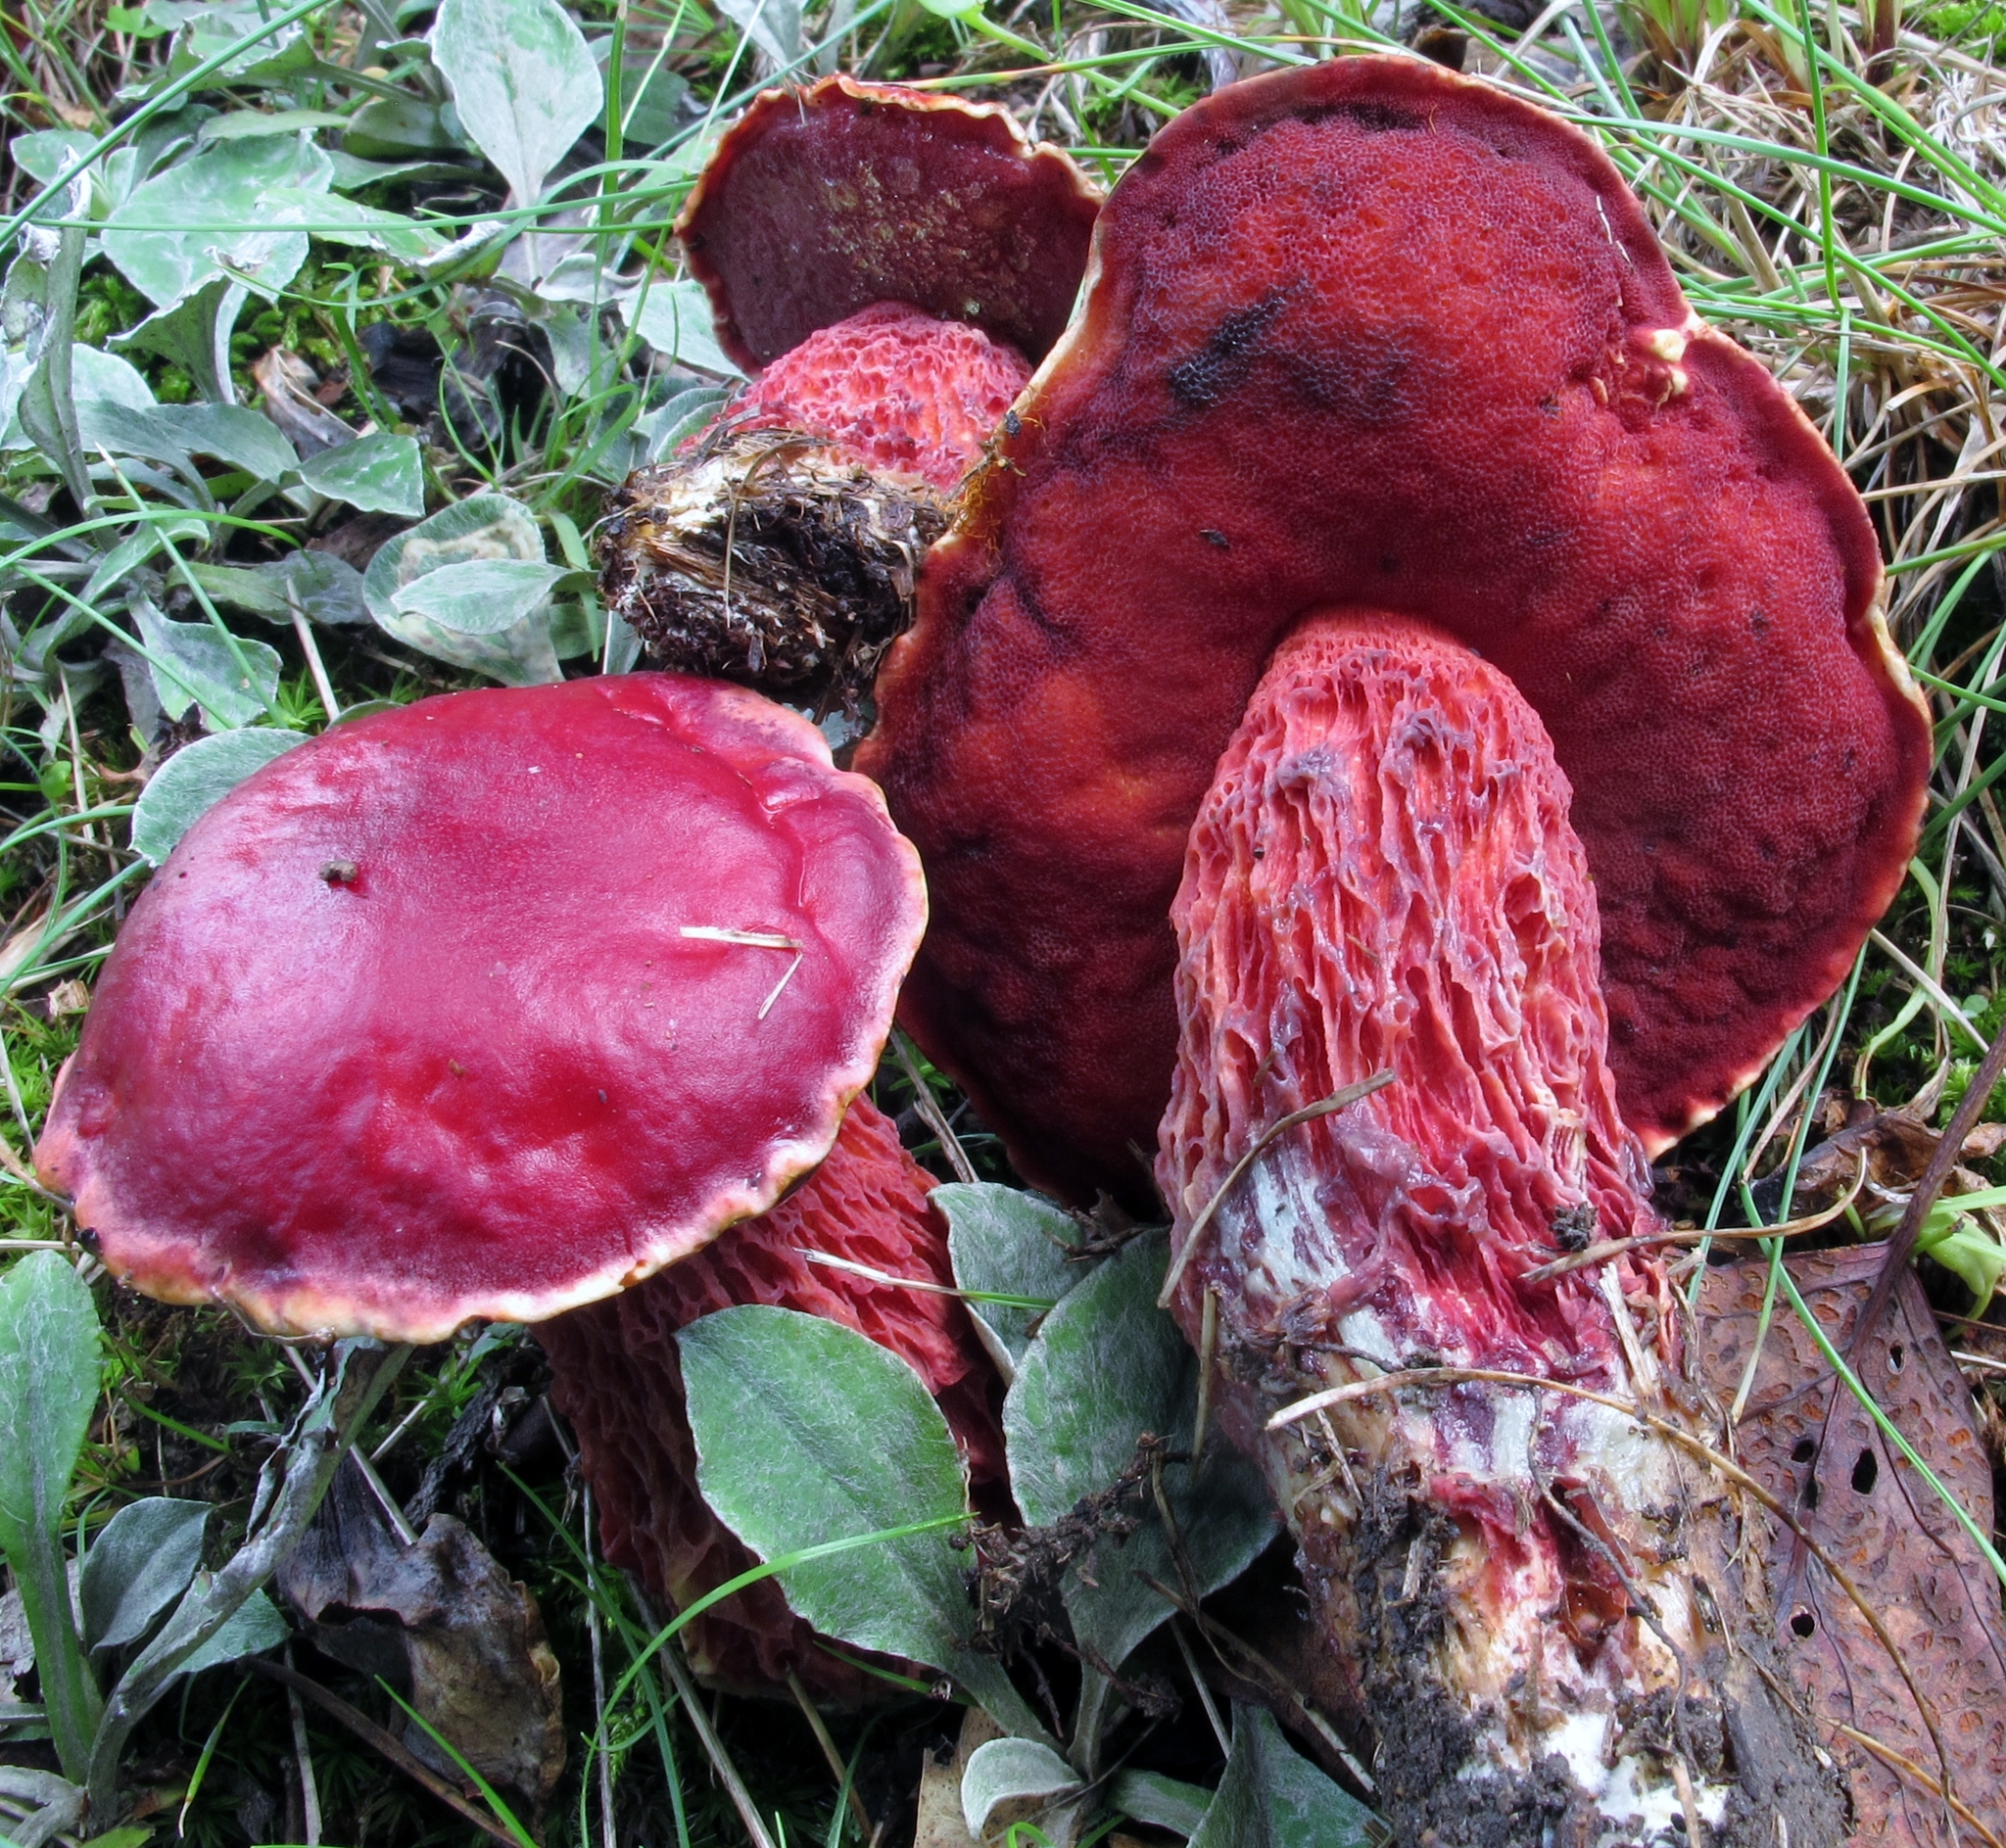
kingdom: Fungi
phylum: Basidiomycota
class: Agaricomycetes
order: Boletales
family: Boletaceae
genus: Butyriboletus
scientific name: Butyriboletus frostii
